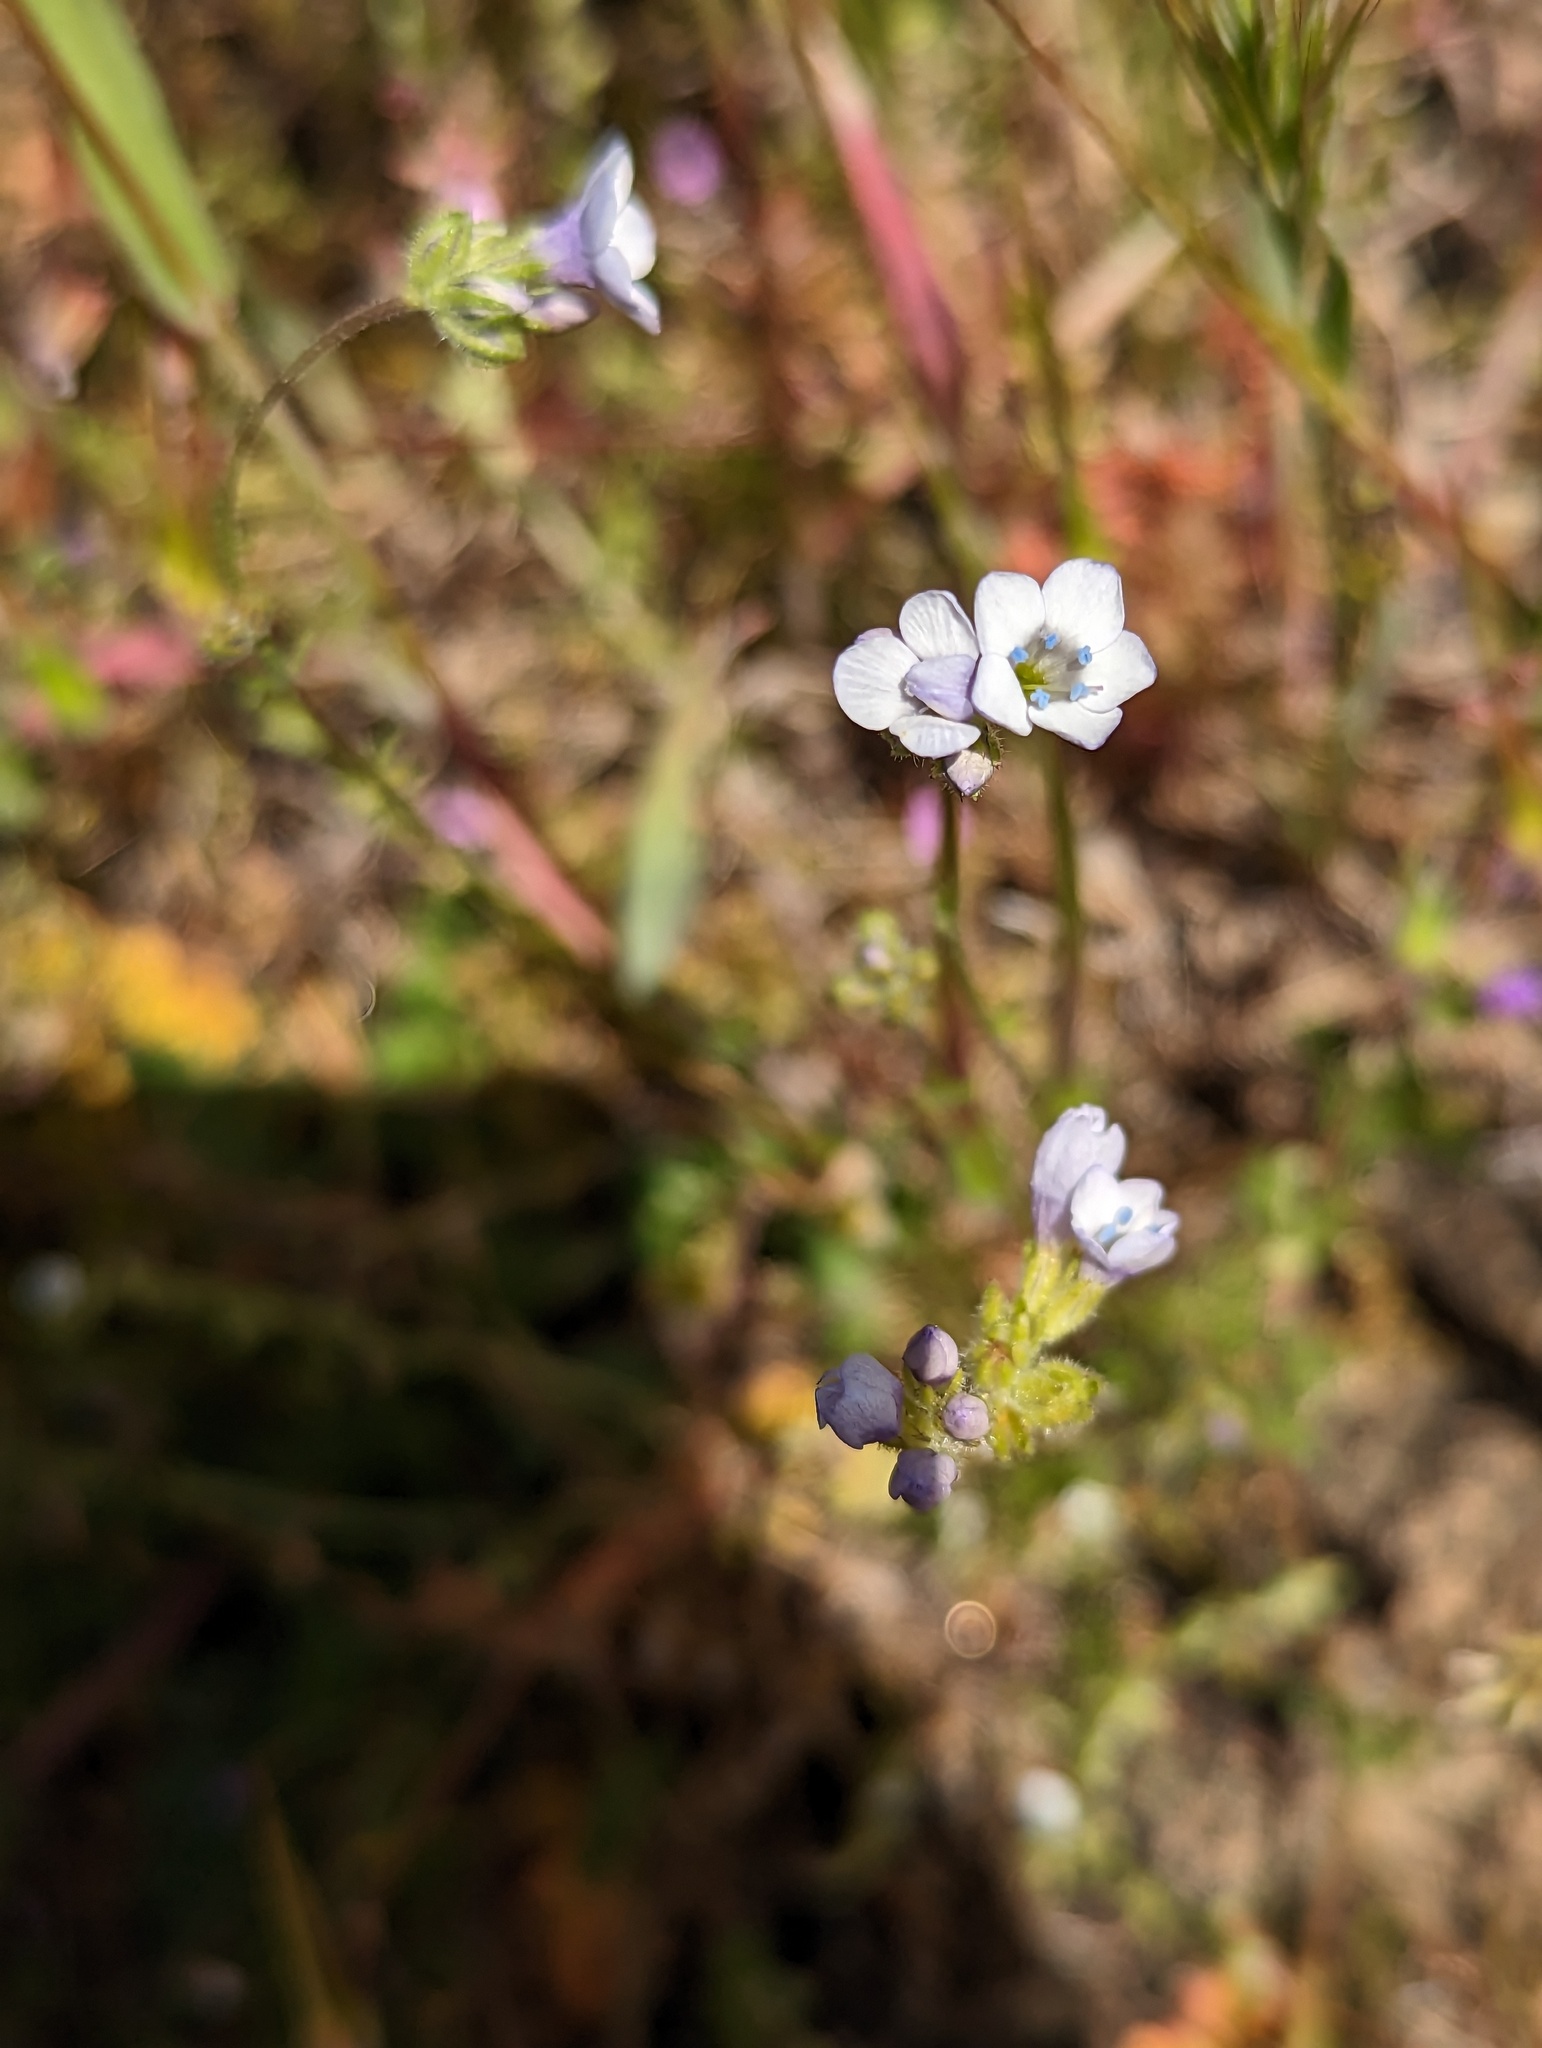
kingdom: Plantae
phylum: Tracheophyta
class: Magnoliopsida
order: Ericales
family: Polemoniaceae
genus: Gilia
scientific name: Gilia angelensis
